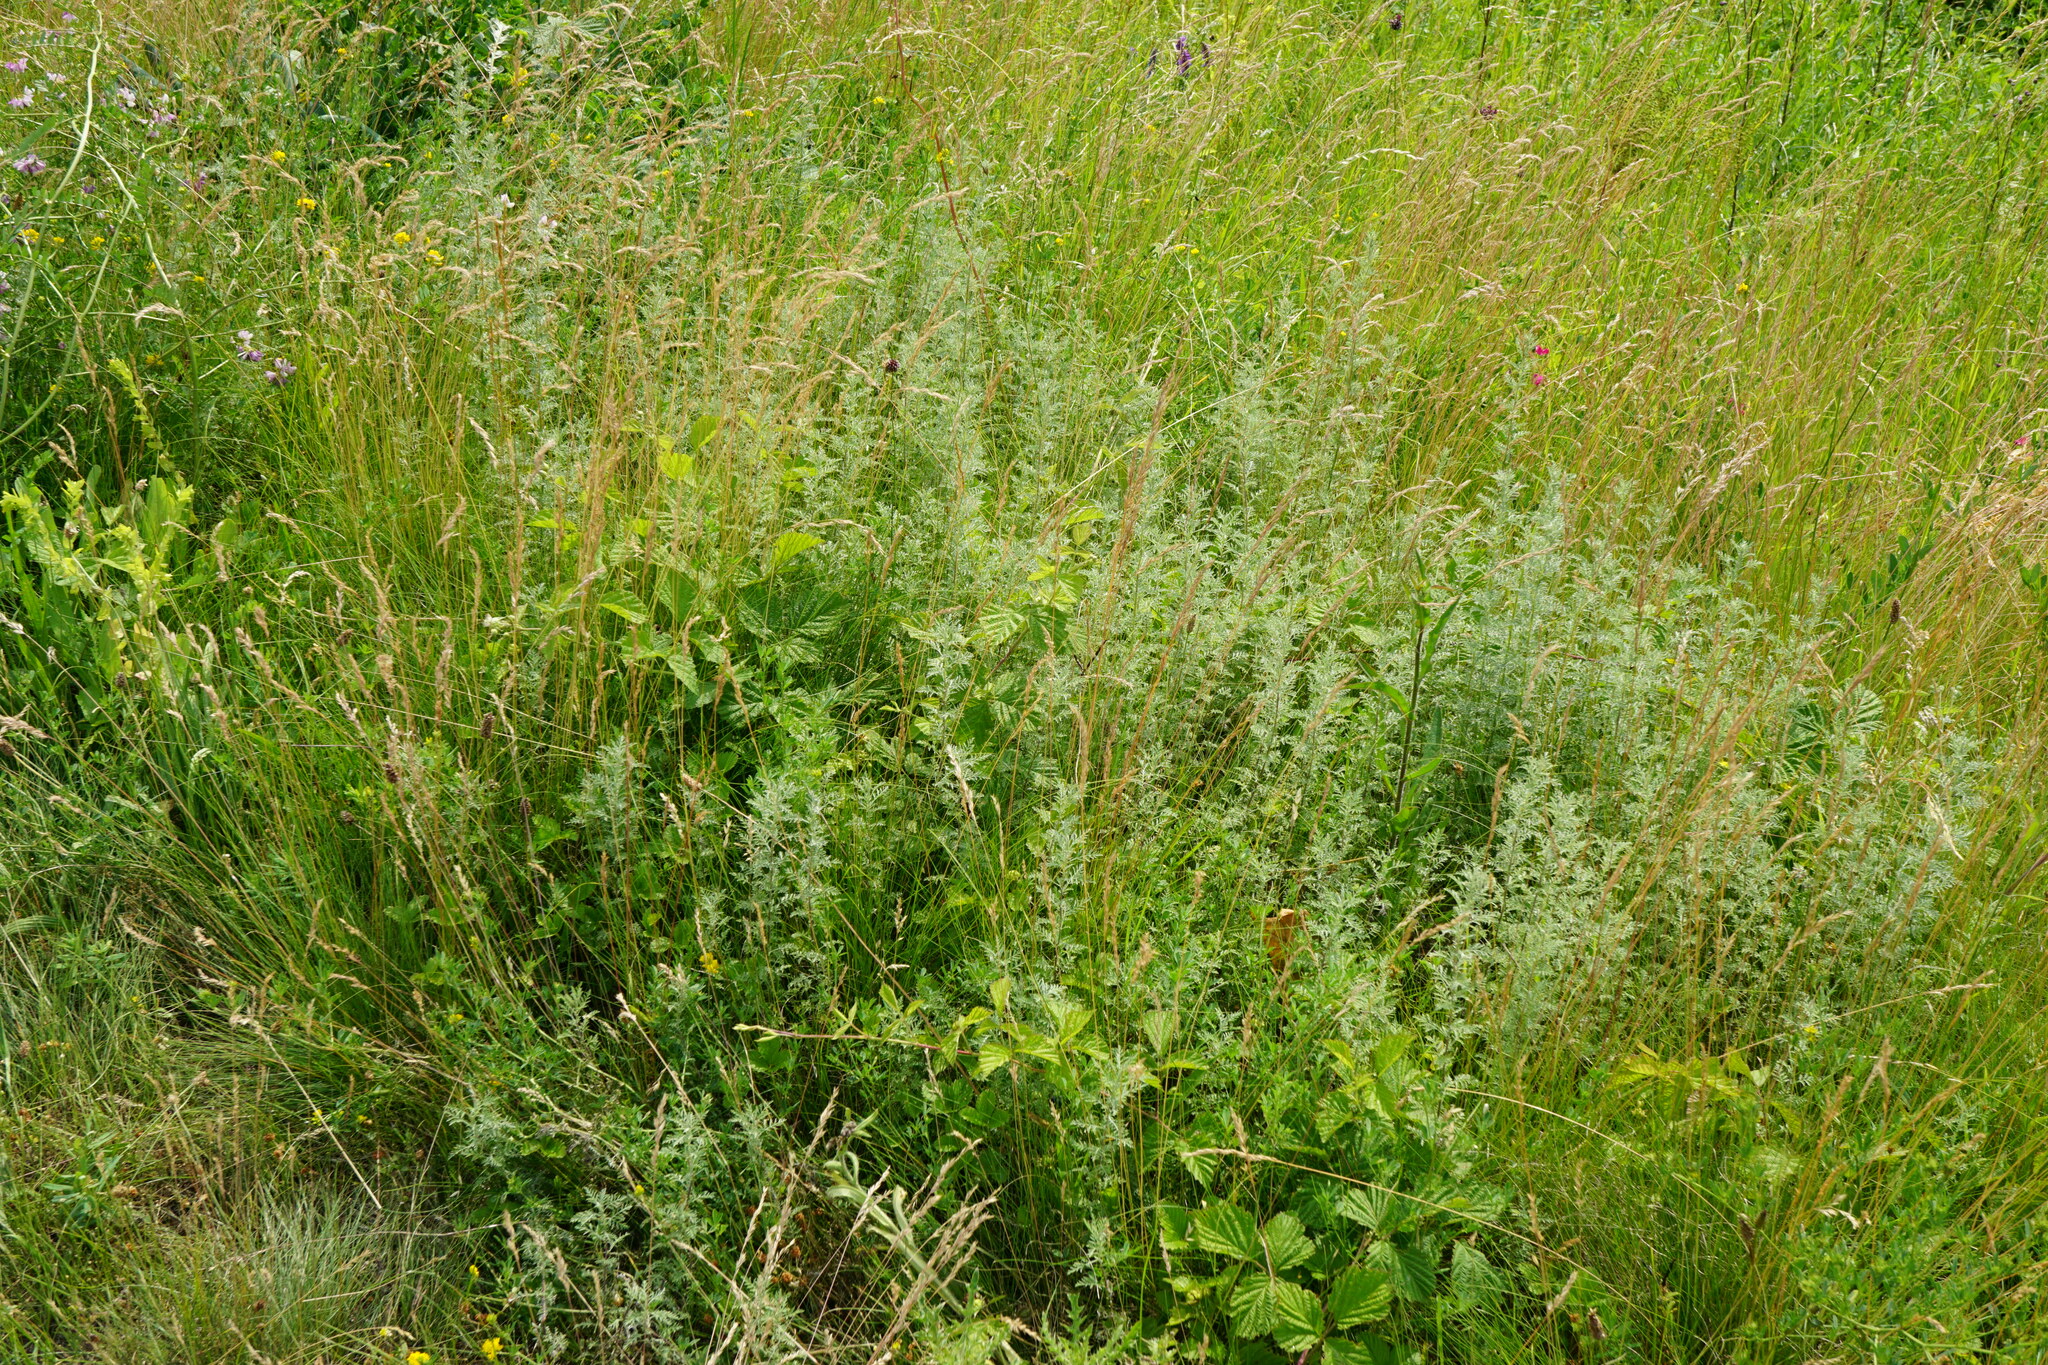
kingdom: Plantae
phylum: Tracheophyta
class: Magnoliopsida
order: Asterales
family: Asteraceae
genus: Artemisia
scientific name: Artemisia pontica
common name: Roman wormwood
